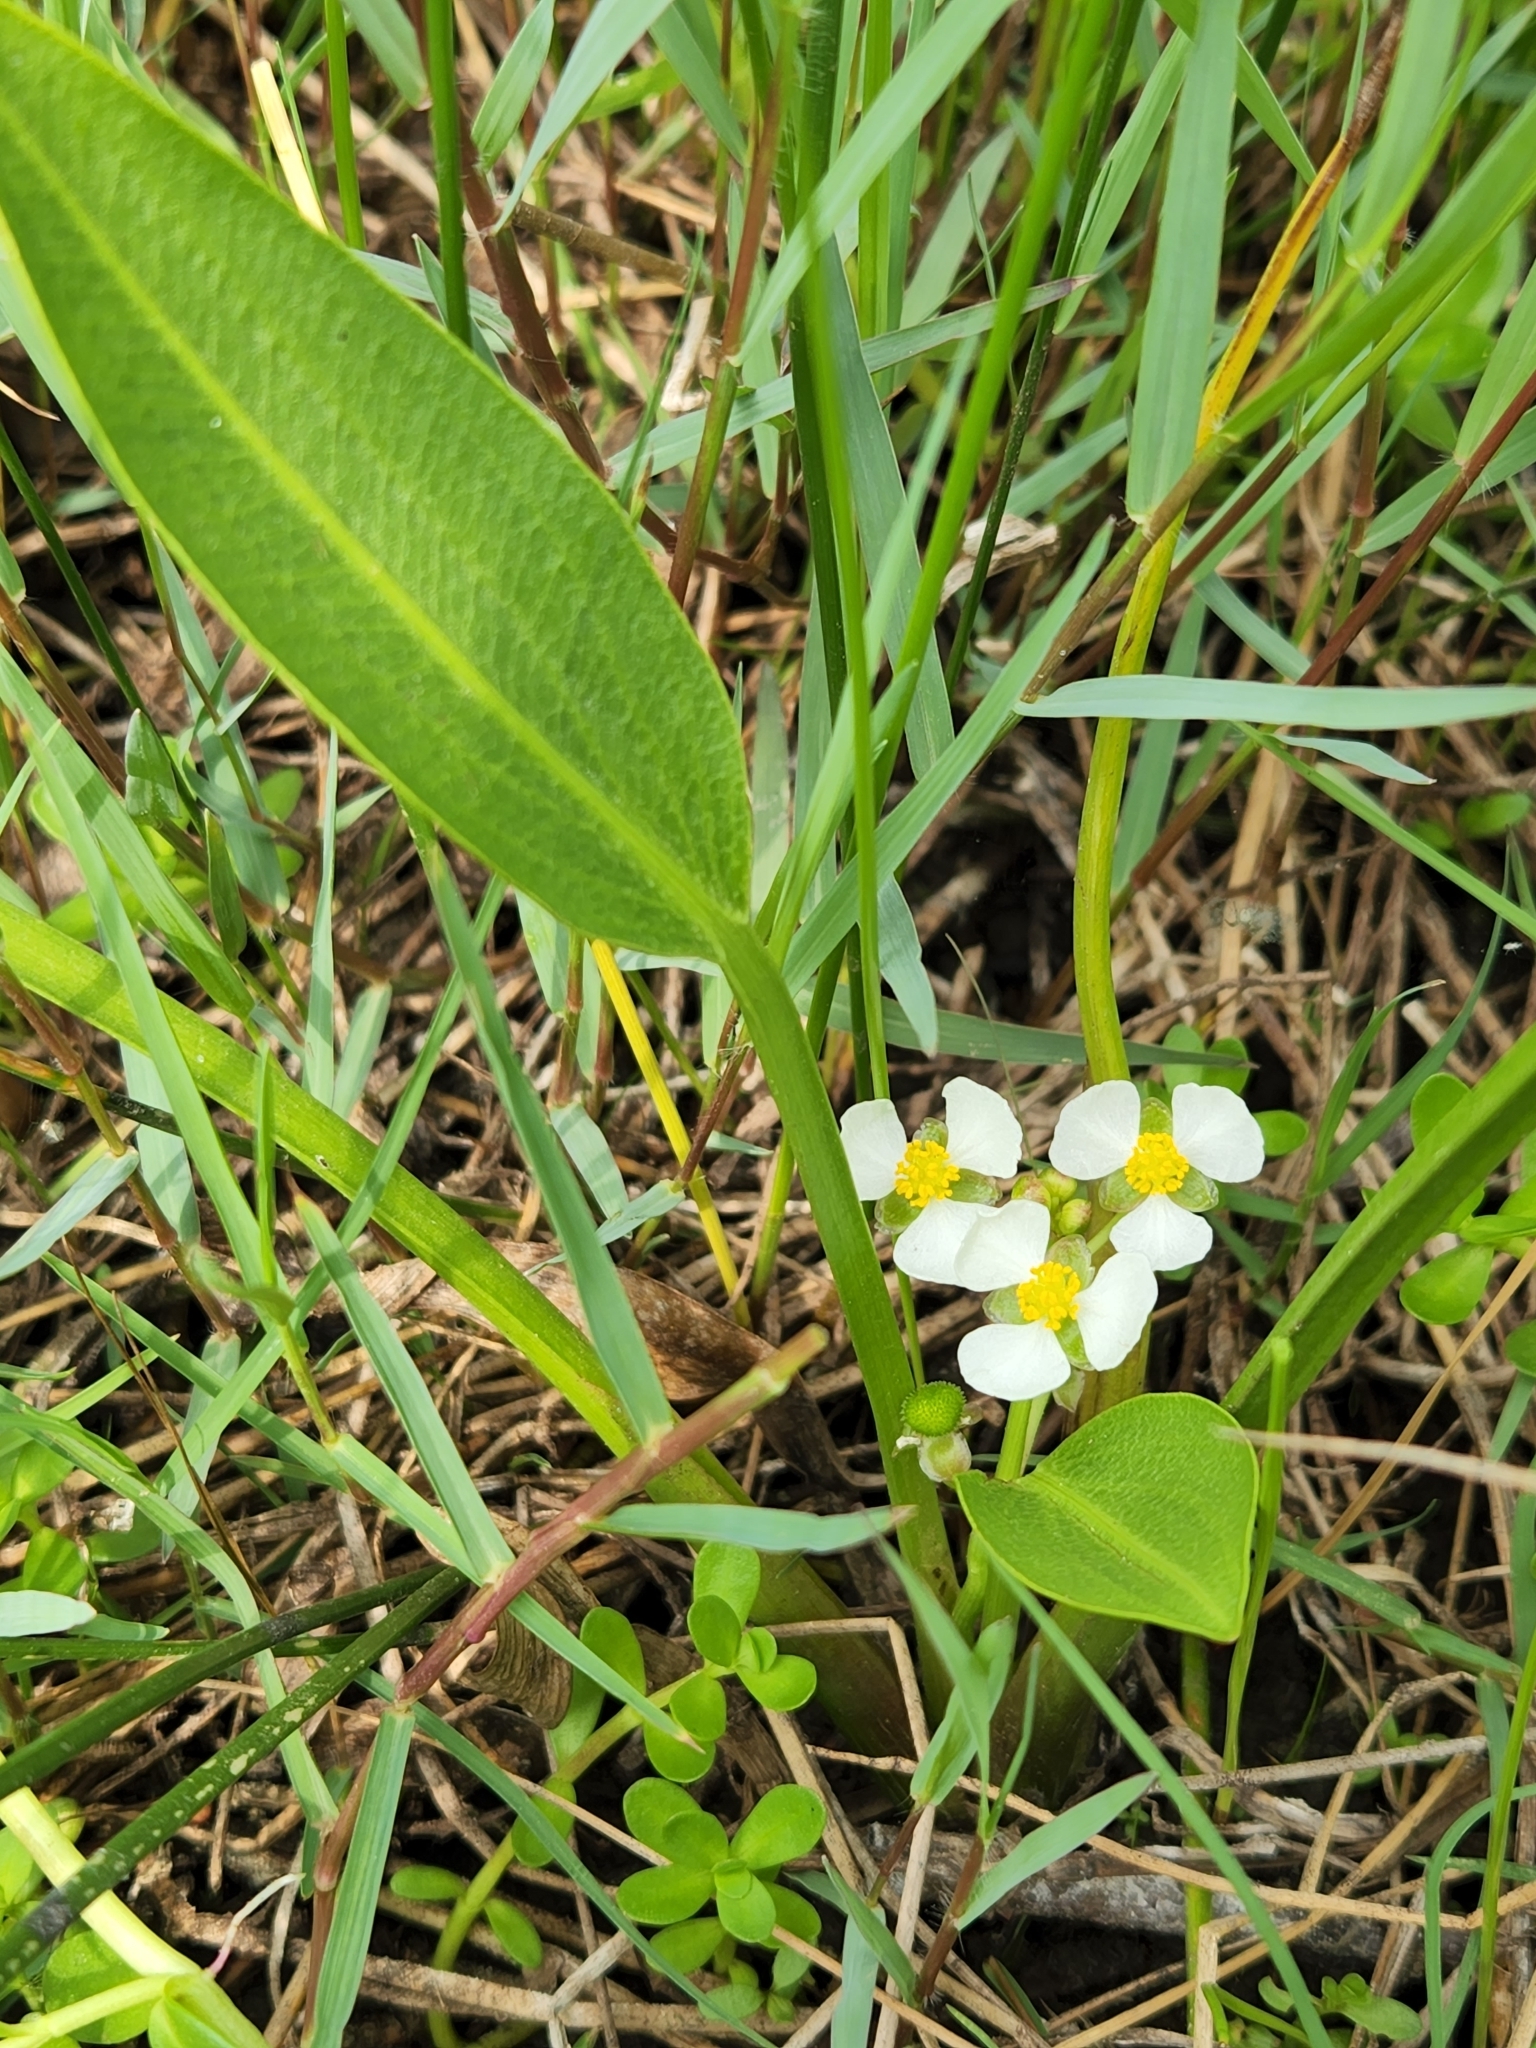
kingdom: Plantae
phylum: Tracheophyta
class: Liliopsida
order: Alismatales
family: Alismataceae
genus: Sagittaria
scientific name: Sagittaria platyphylla
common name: Broad-leaf arrowhead
